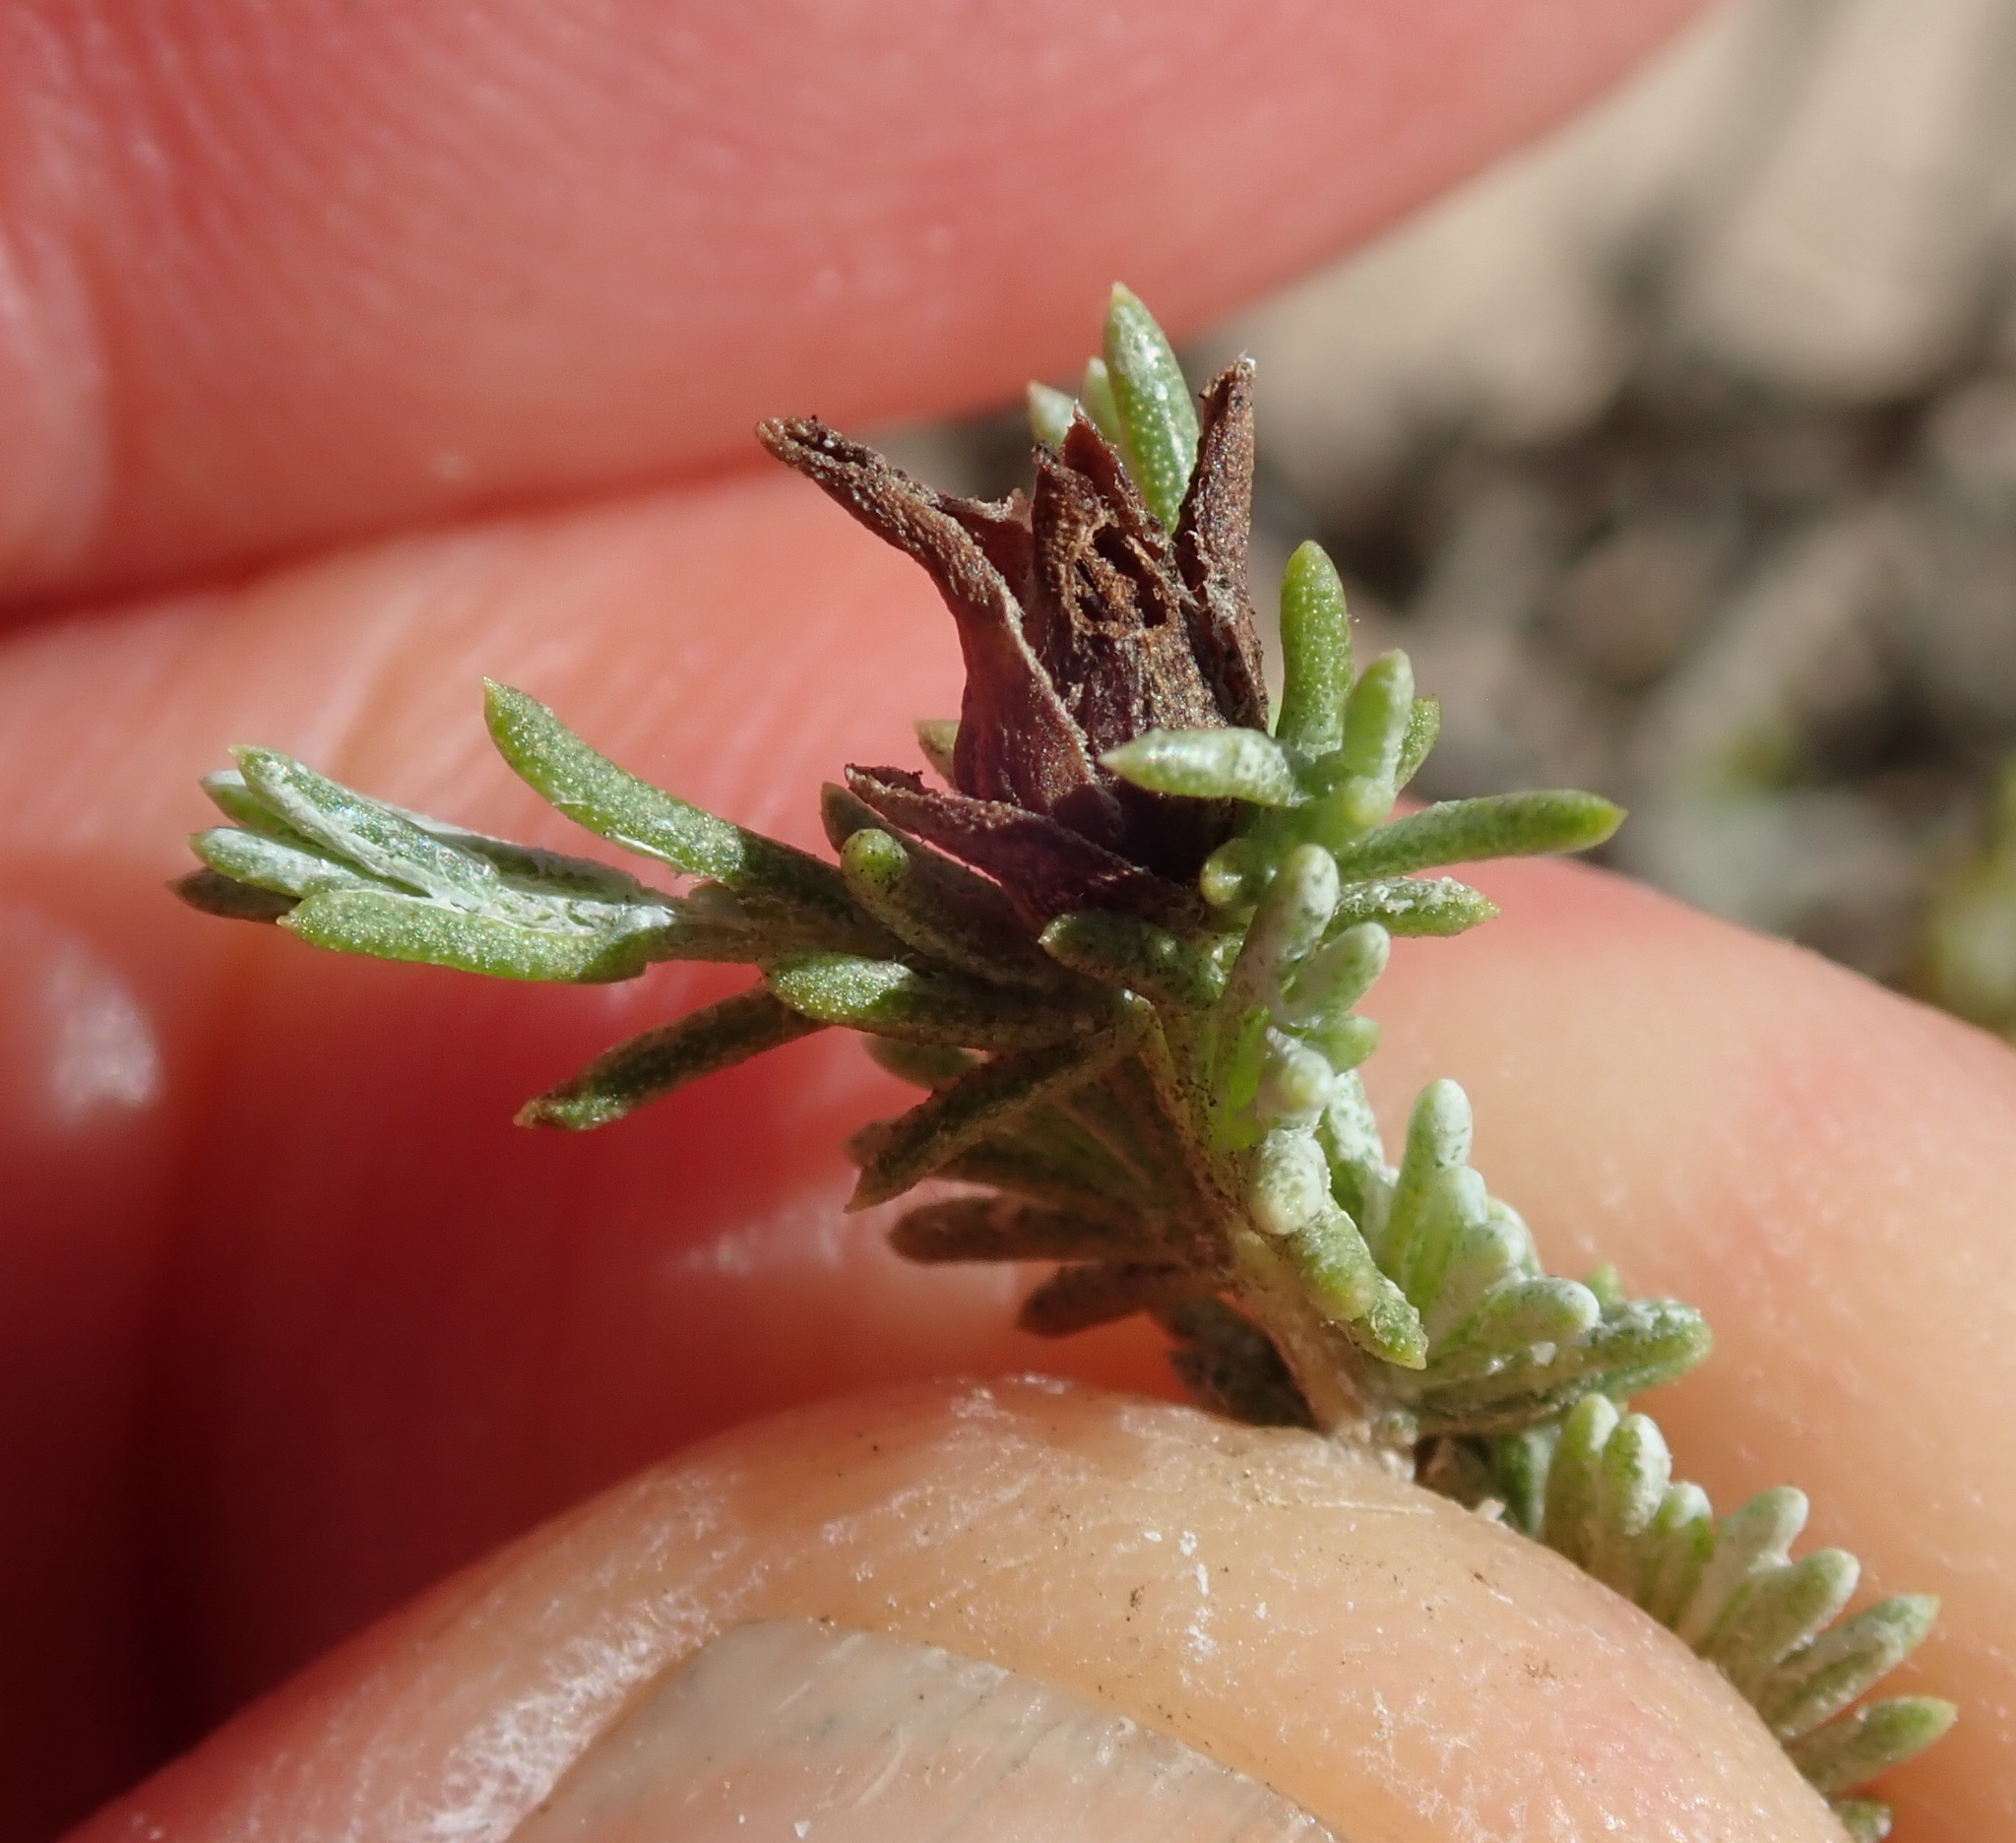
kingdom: Animalia
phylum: Arthropoda
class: Insecta
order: Diptera
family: Cecidomyiidae
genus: Rhopalomyia
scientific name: Rhopalomyia ericameriae
